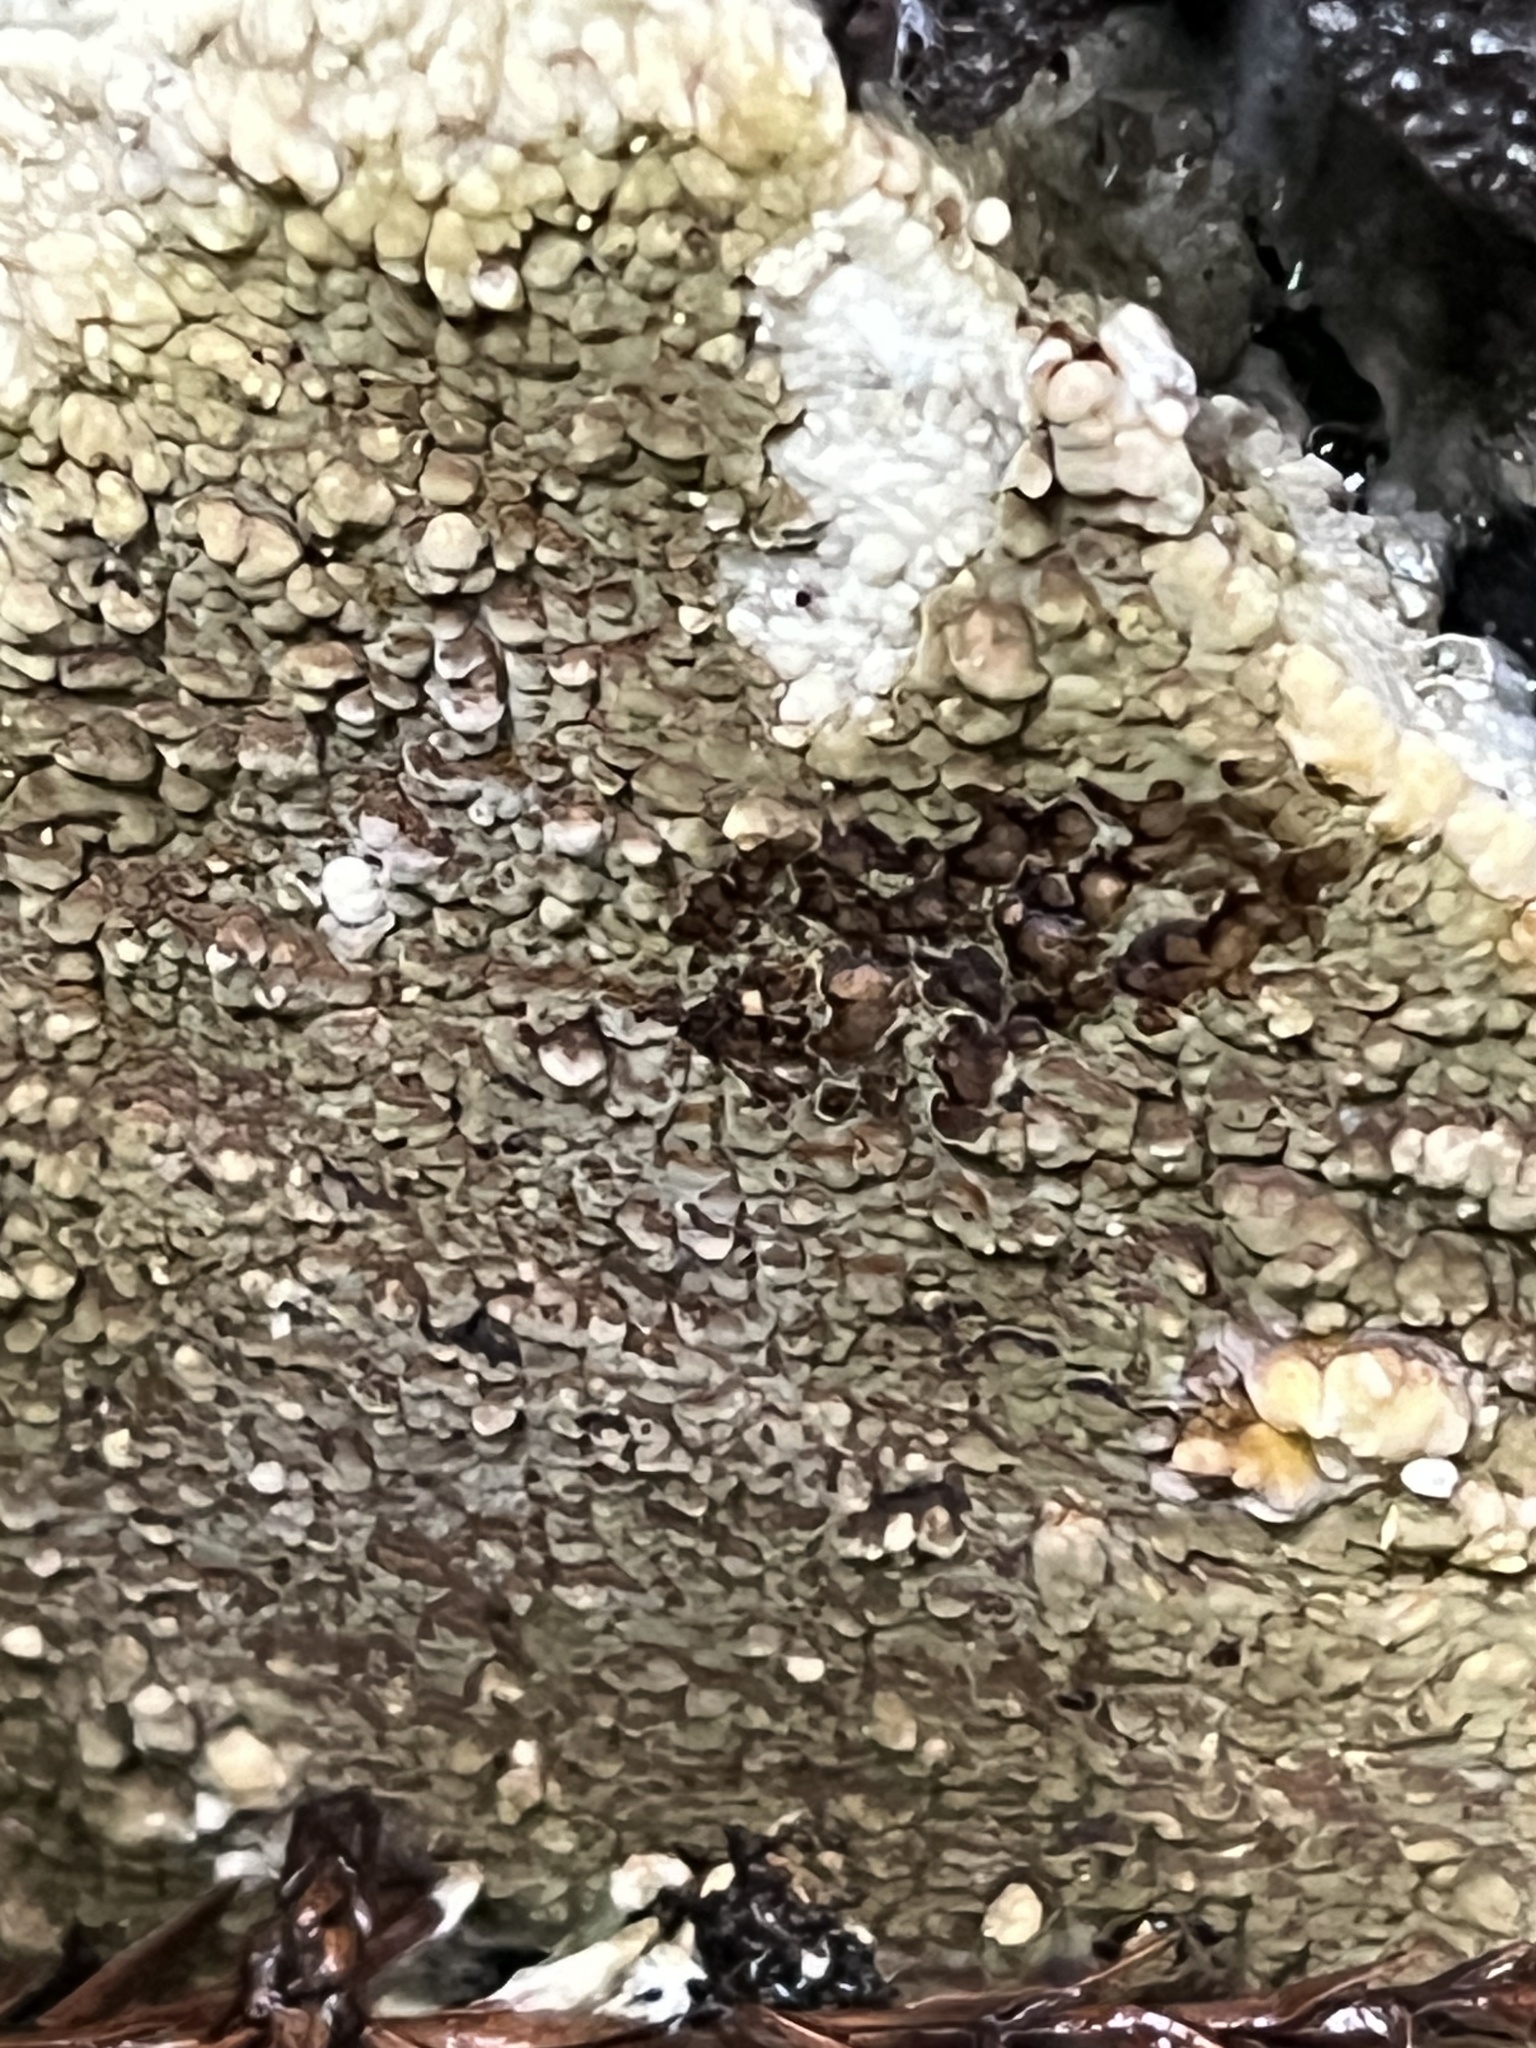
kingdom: Fungi
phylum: Basidiomycota
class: Agaricomycetes
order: Boletales
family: Coniophoraceae
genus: Coniophora
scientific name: Coniophora olivacea
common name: Olive duster
